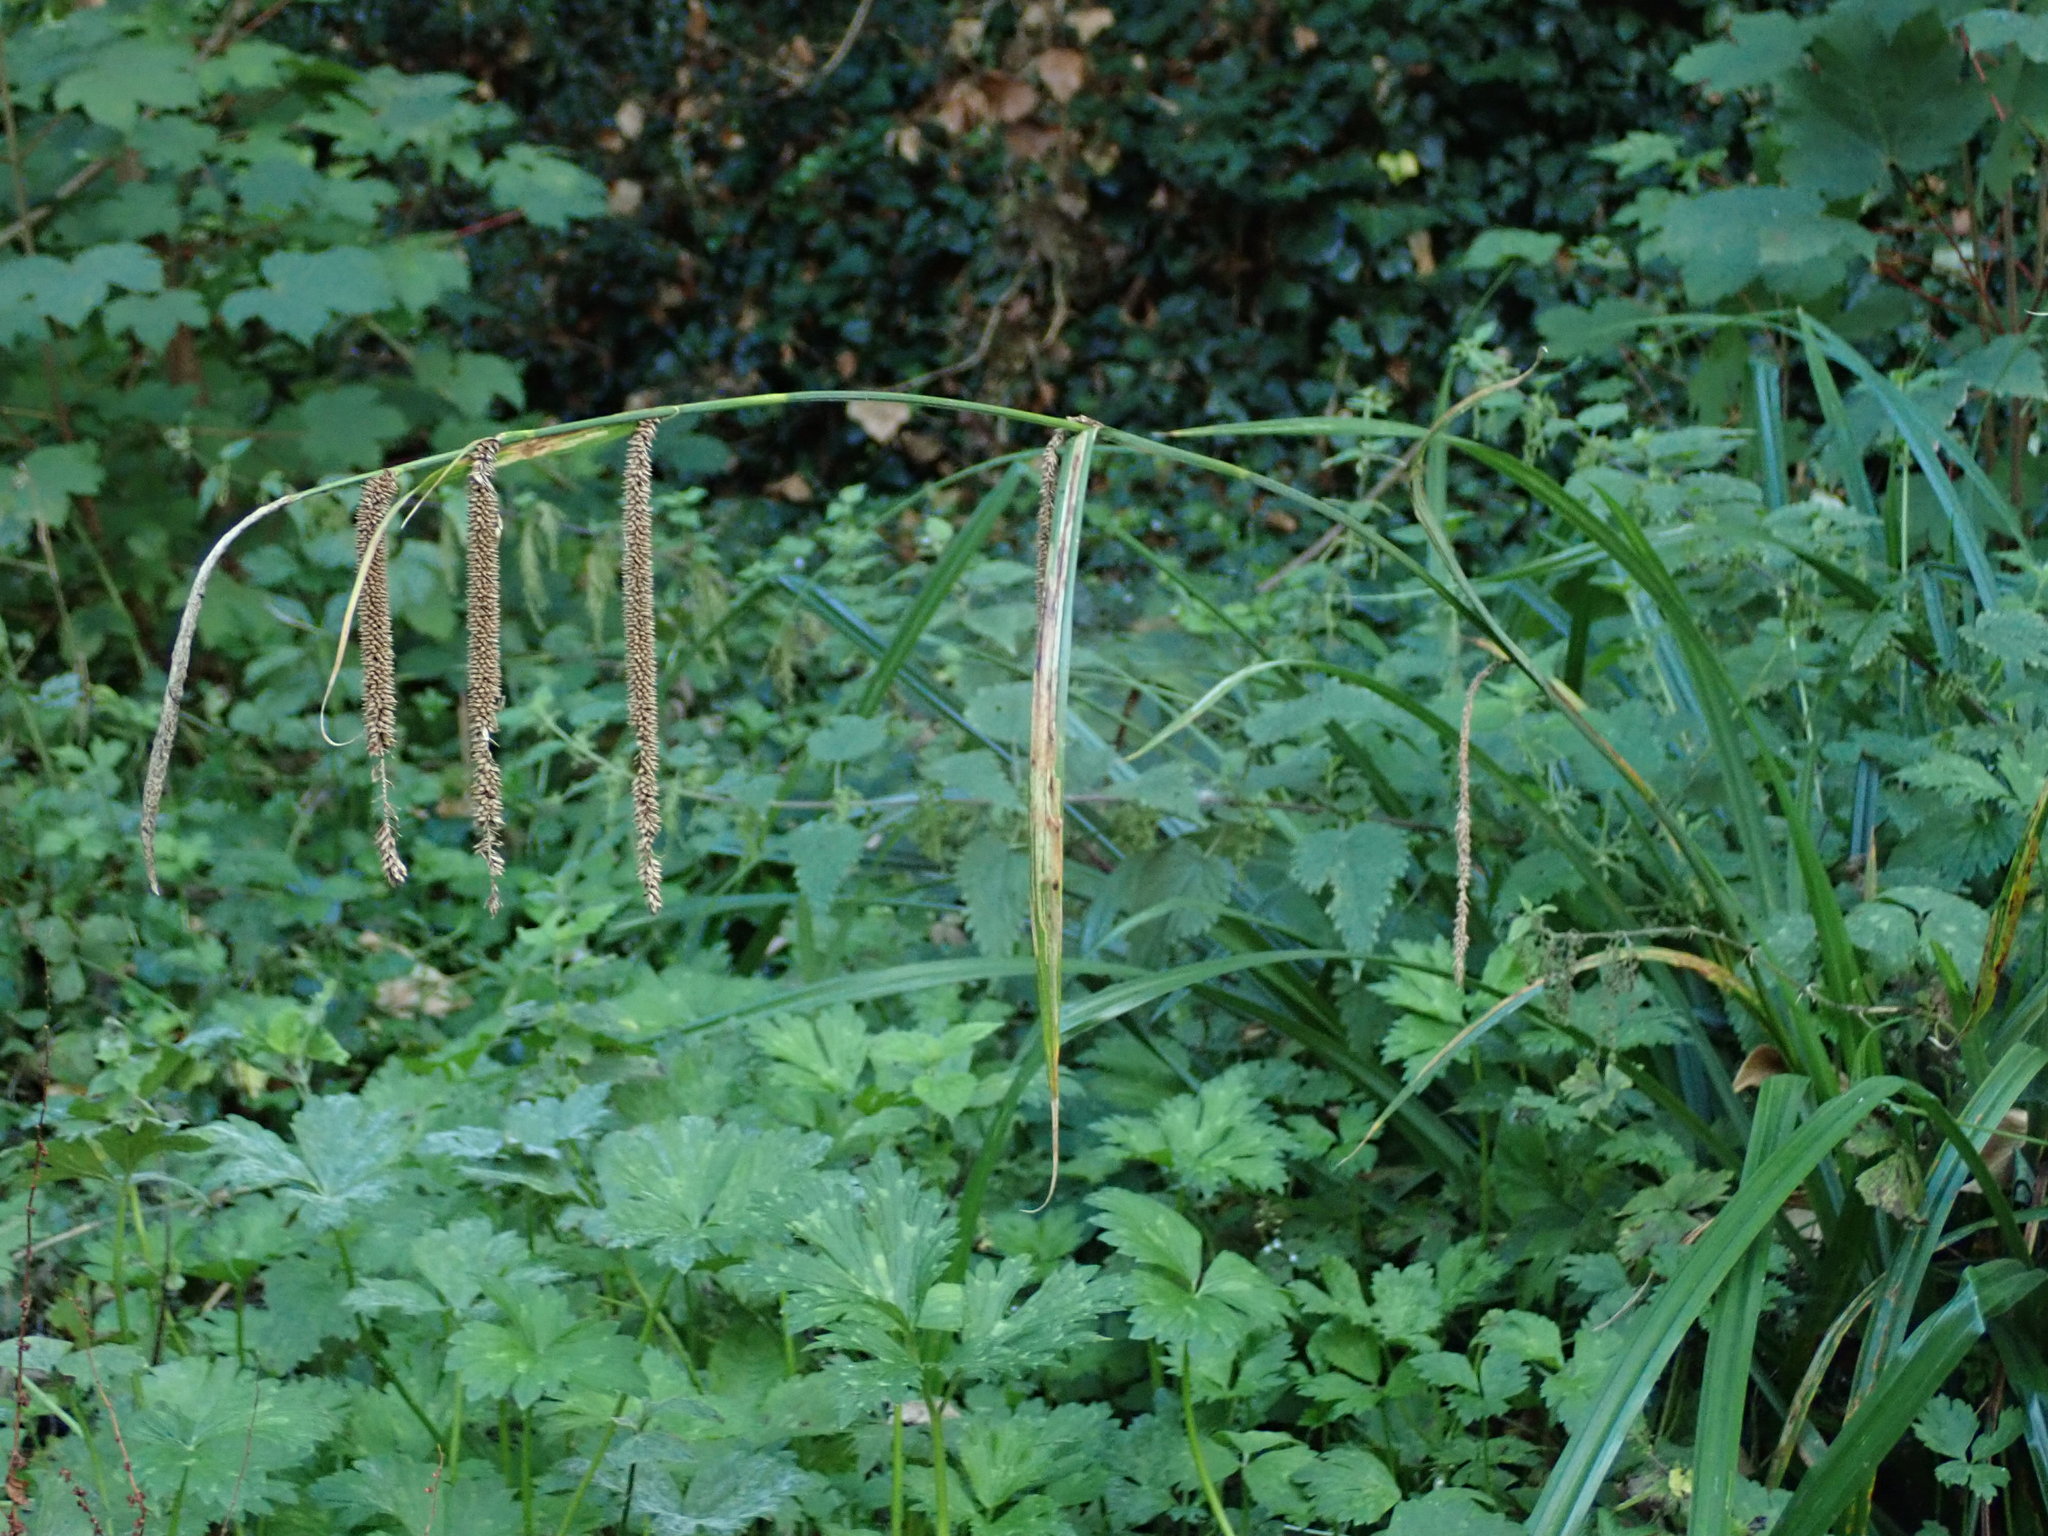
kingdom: Plantae
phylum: Tracheophyta
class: Liliopsida
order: Poales
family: Cyperaceae
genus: Carex
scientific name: Carex pendula
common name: Pendulous sedge
